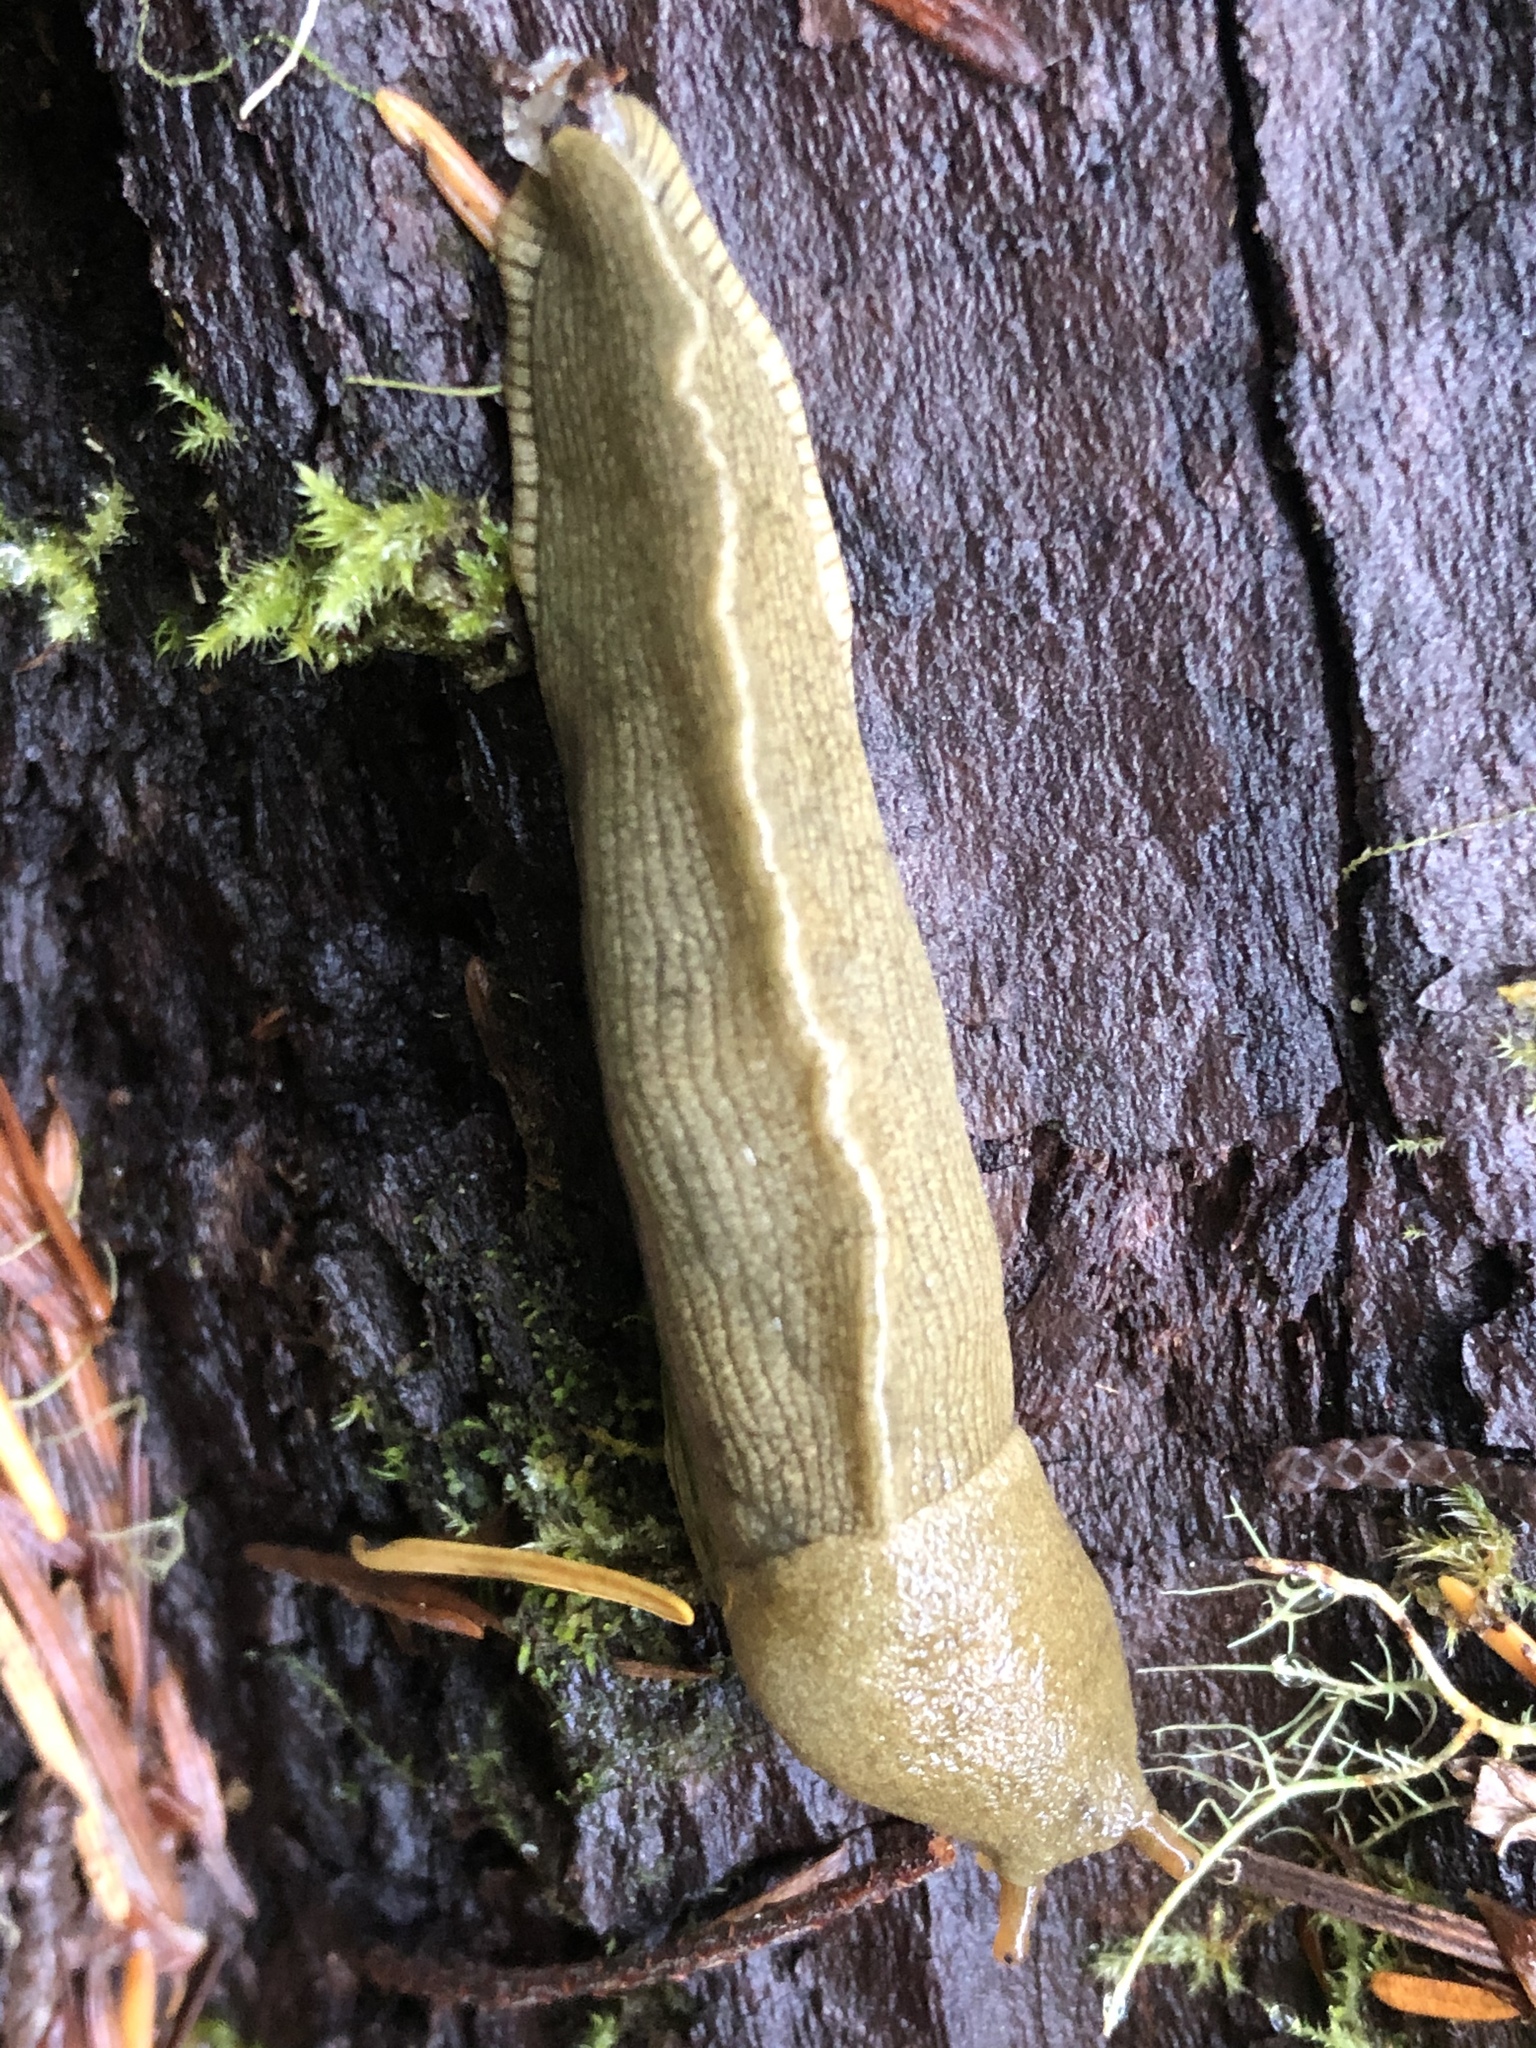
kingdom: Animalia
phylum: Mollusca
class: Gastropoda
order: Stylommatophora
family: Ariolimacidae
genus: Ariolimax
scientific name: Ariolimax columbianus
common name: Pacific banana slug
